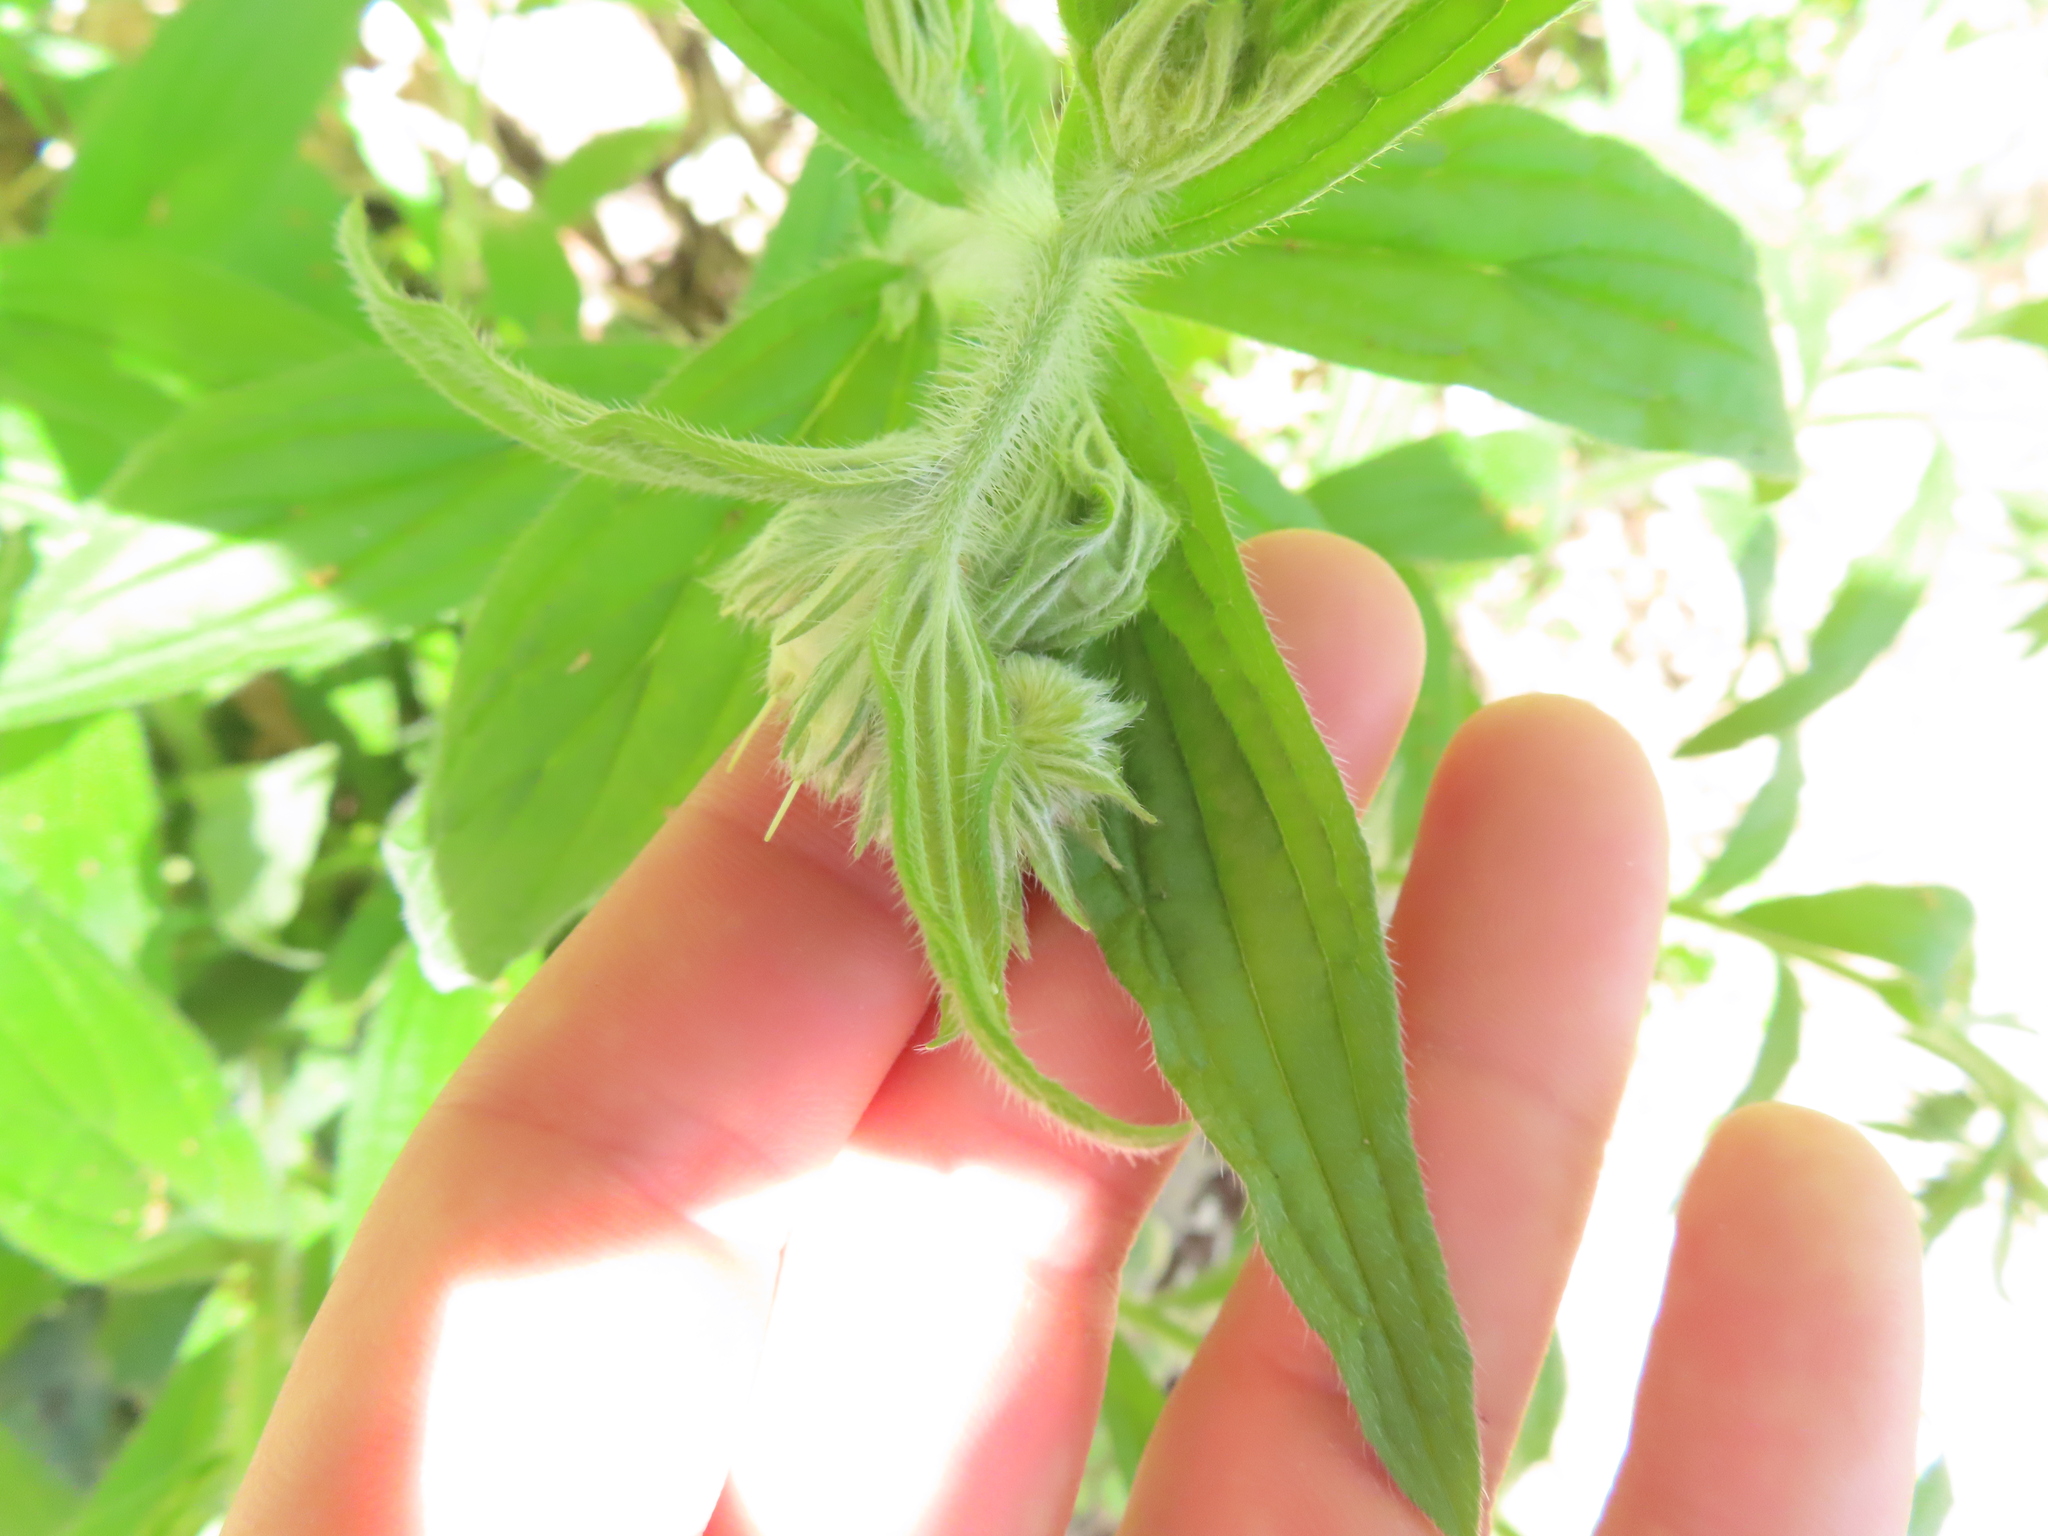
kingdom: Plantae
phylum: Tracheophyta
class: Magnoliopsida
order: Boraginales
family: Boraginaceae
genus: Lithospermum
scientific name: Lithospermum caroliniense
